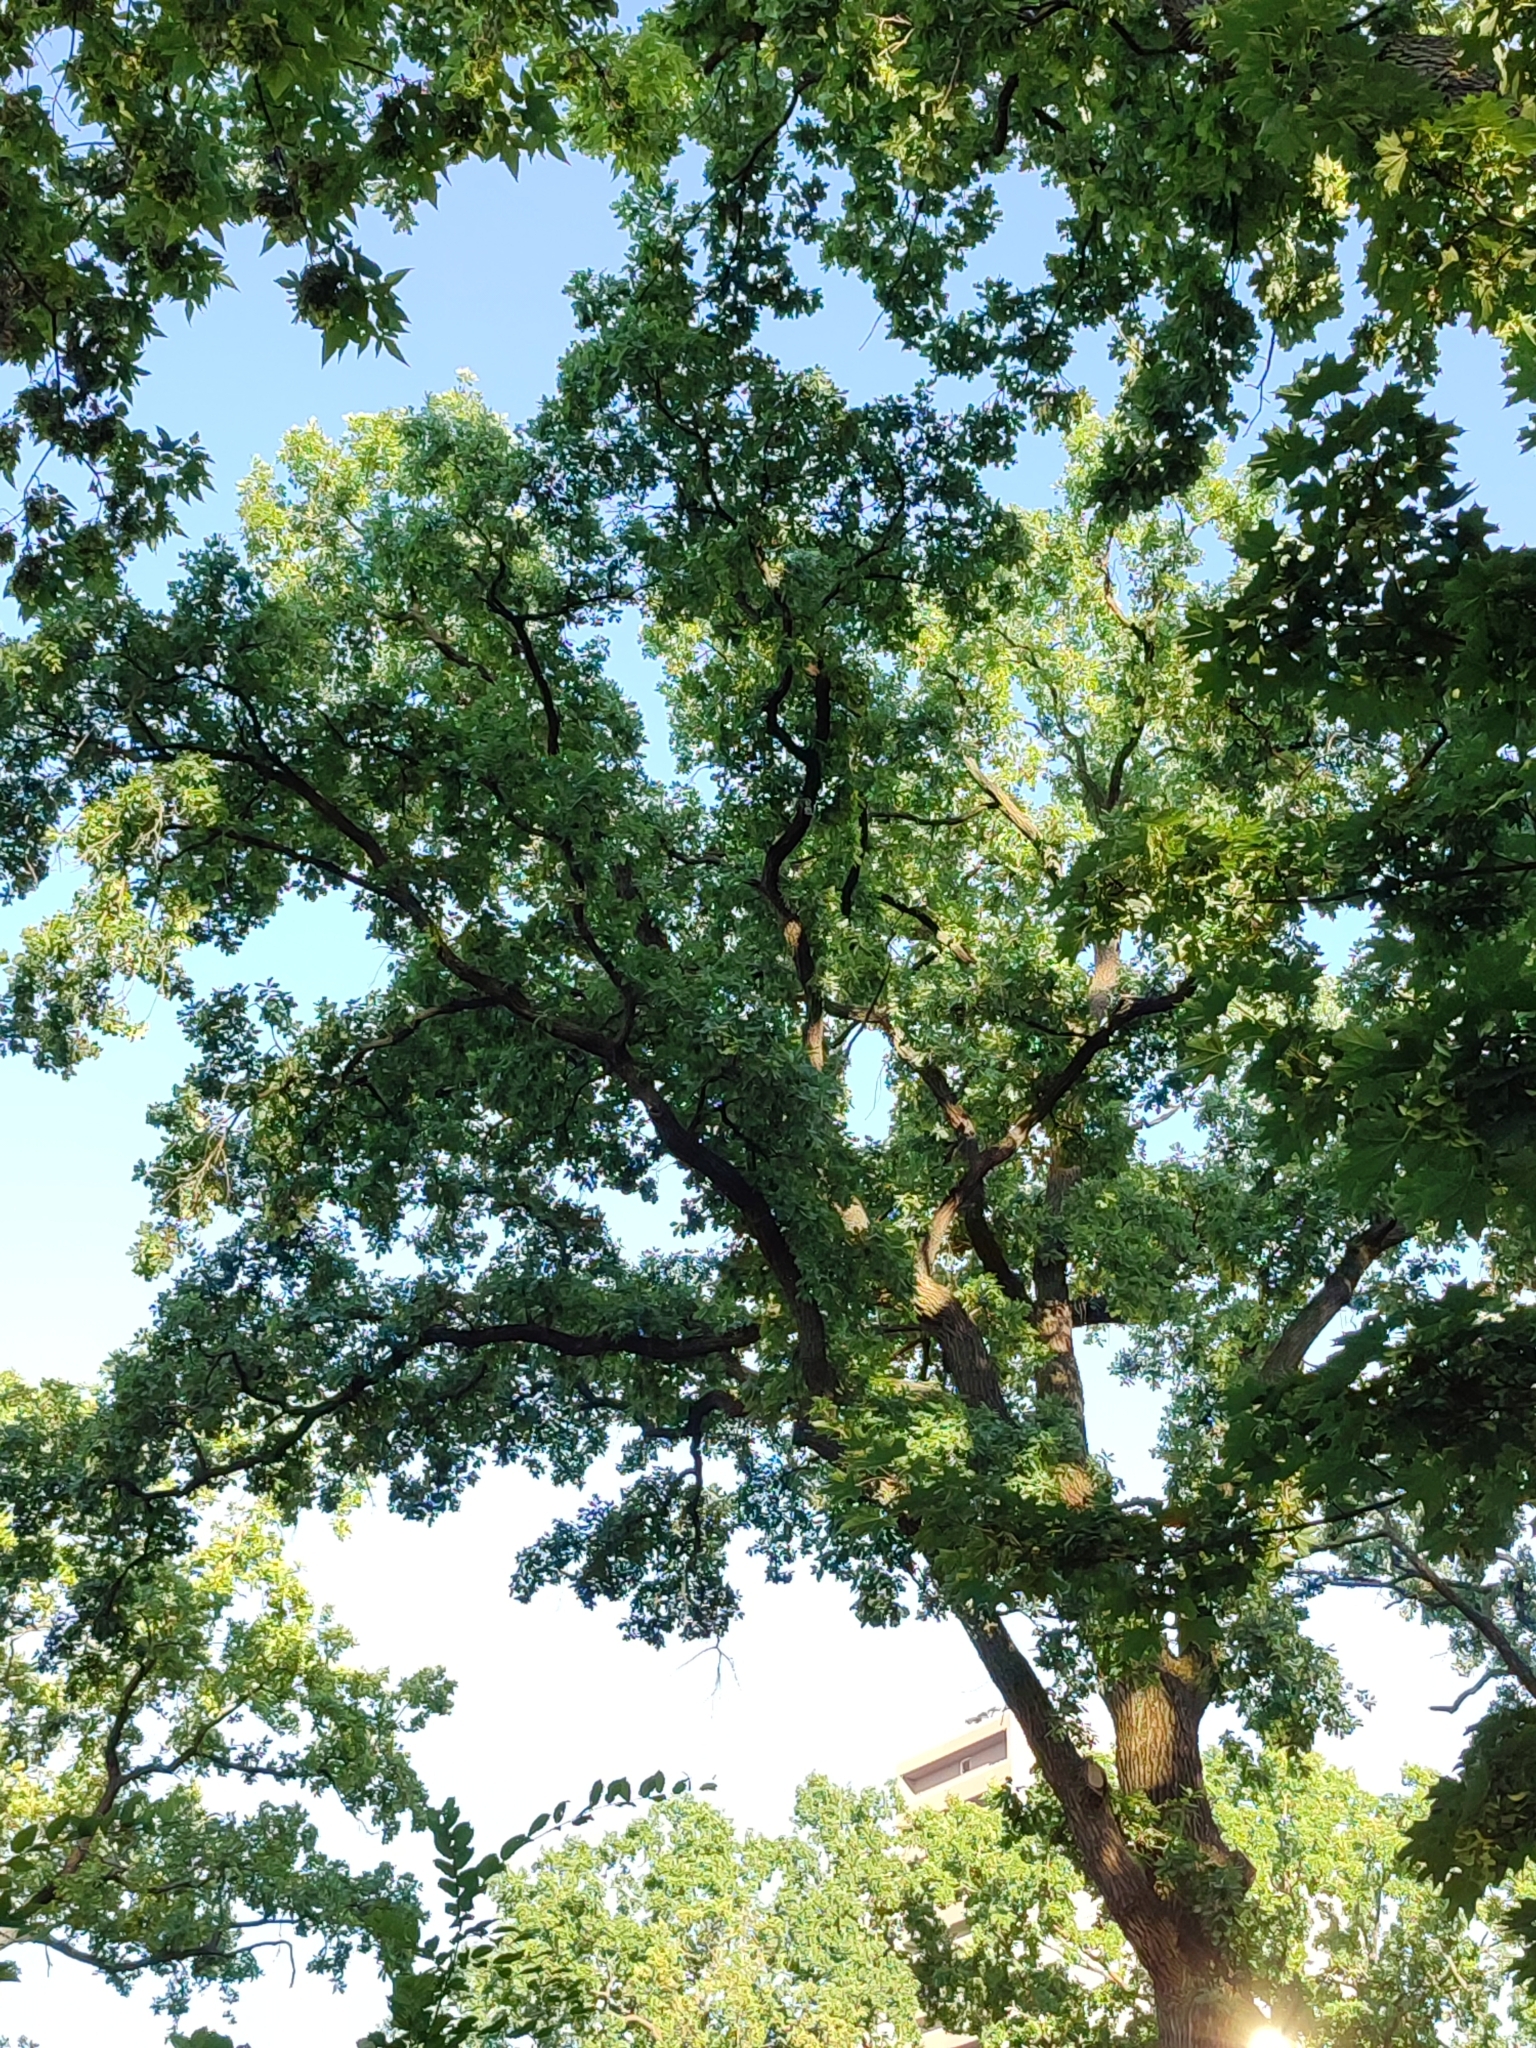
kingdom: Plantae
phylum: Tracheophyta
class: Magnoliopsida
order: Fagales
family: Fagaceae
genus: Quercus
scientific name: Quercus robur
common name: Pedunculate oak
